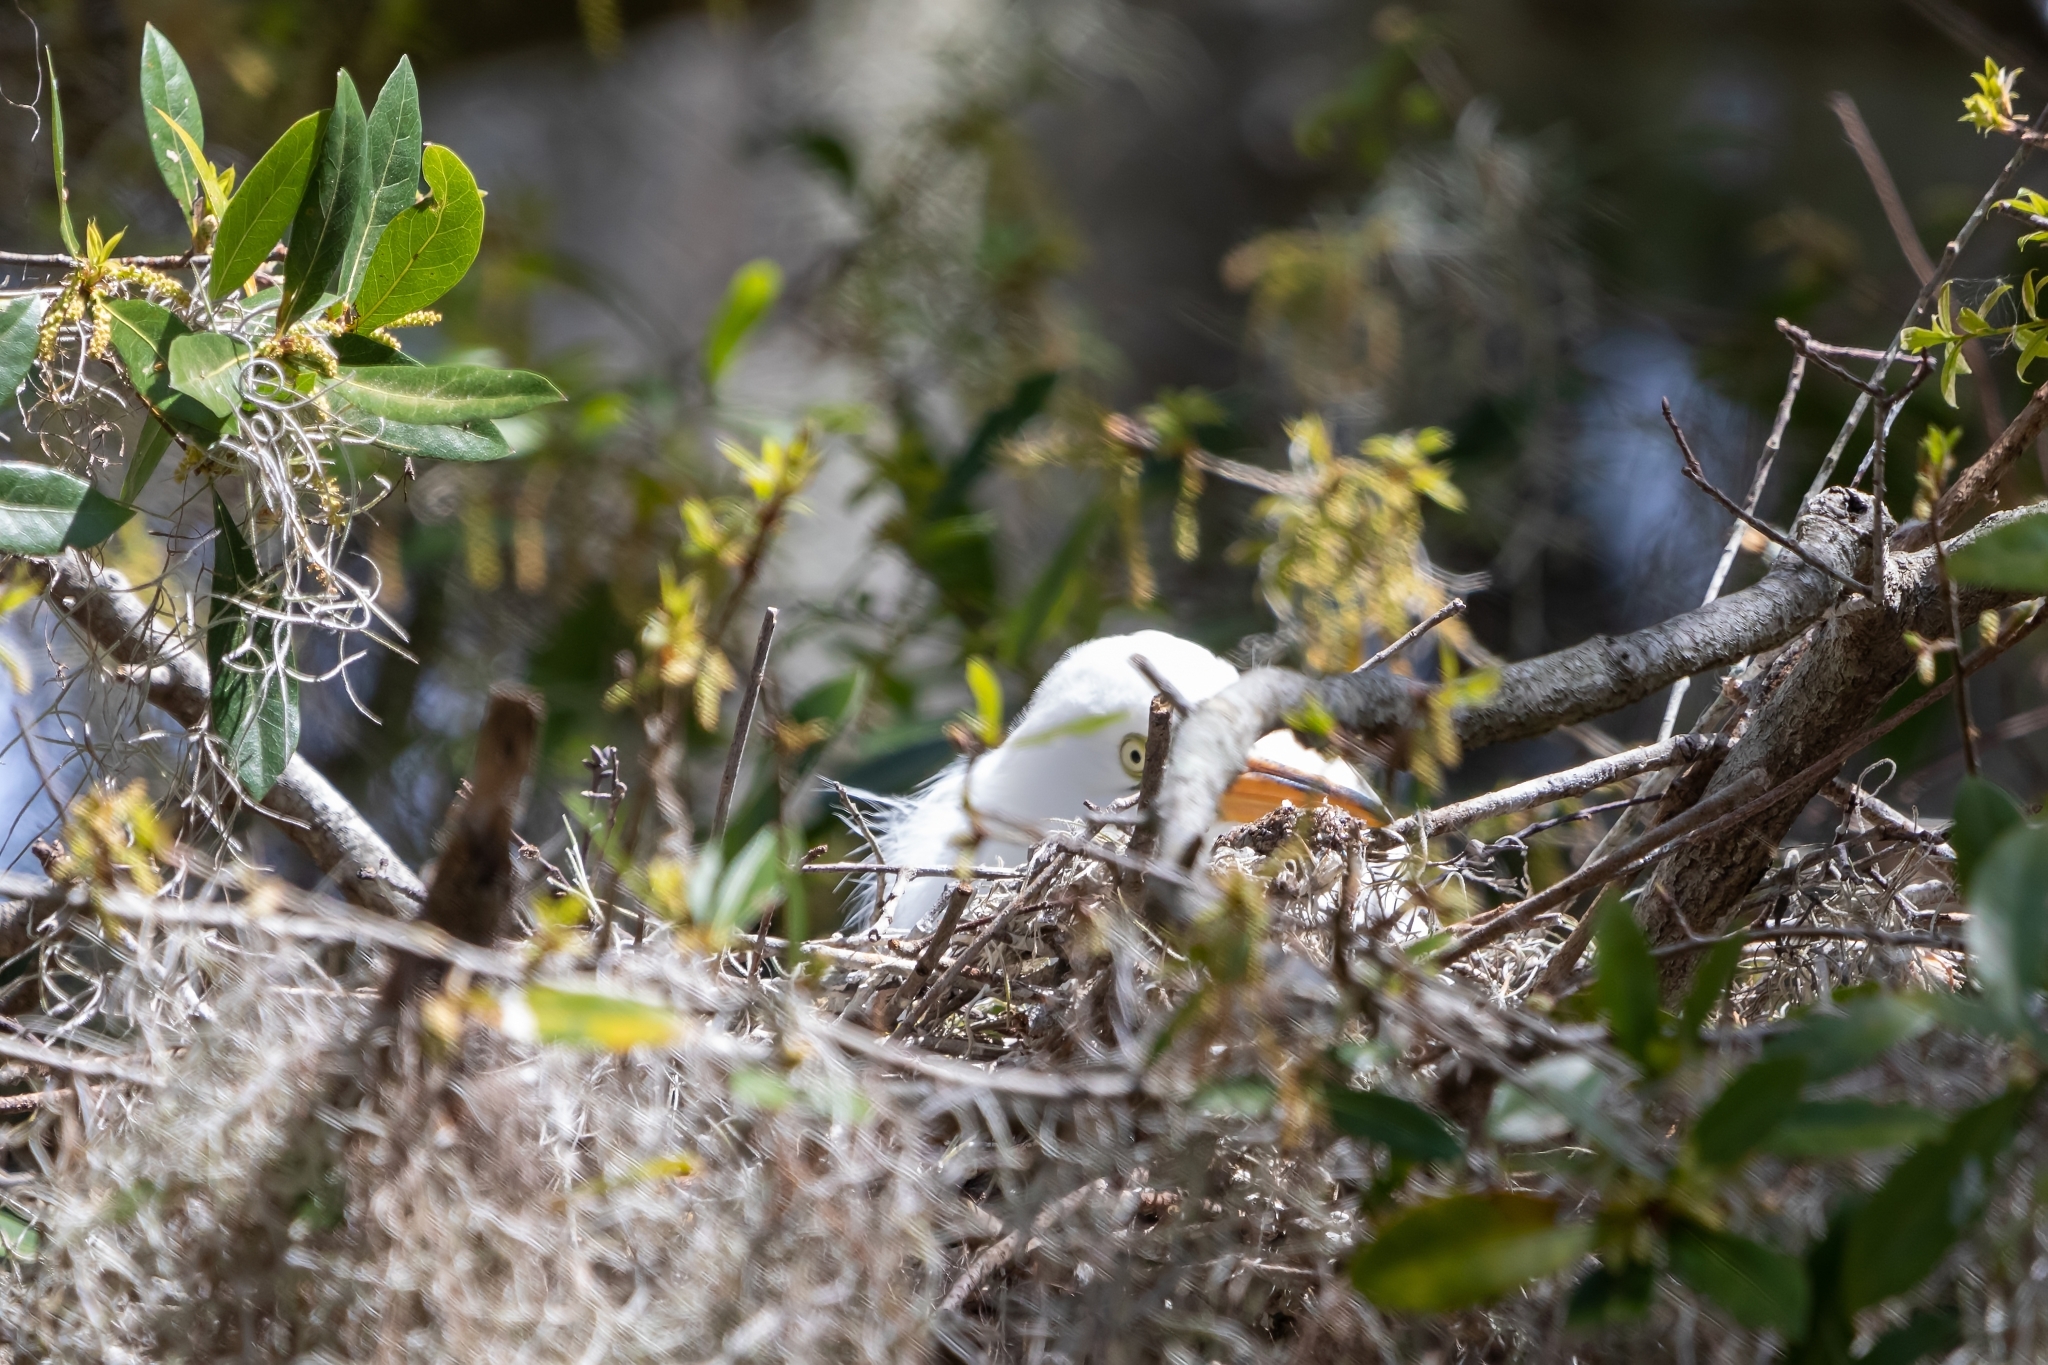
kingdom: Animalia
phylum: Chordata
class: Aves
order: Pelecaniformes
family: Ardeidae
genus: Ardea
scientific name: Ardea alba
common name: Great egret
